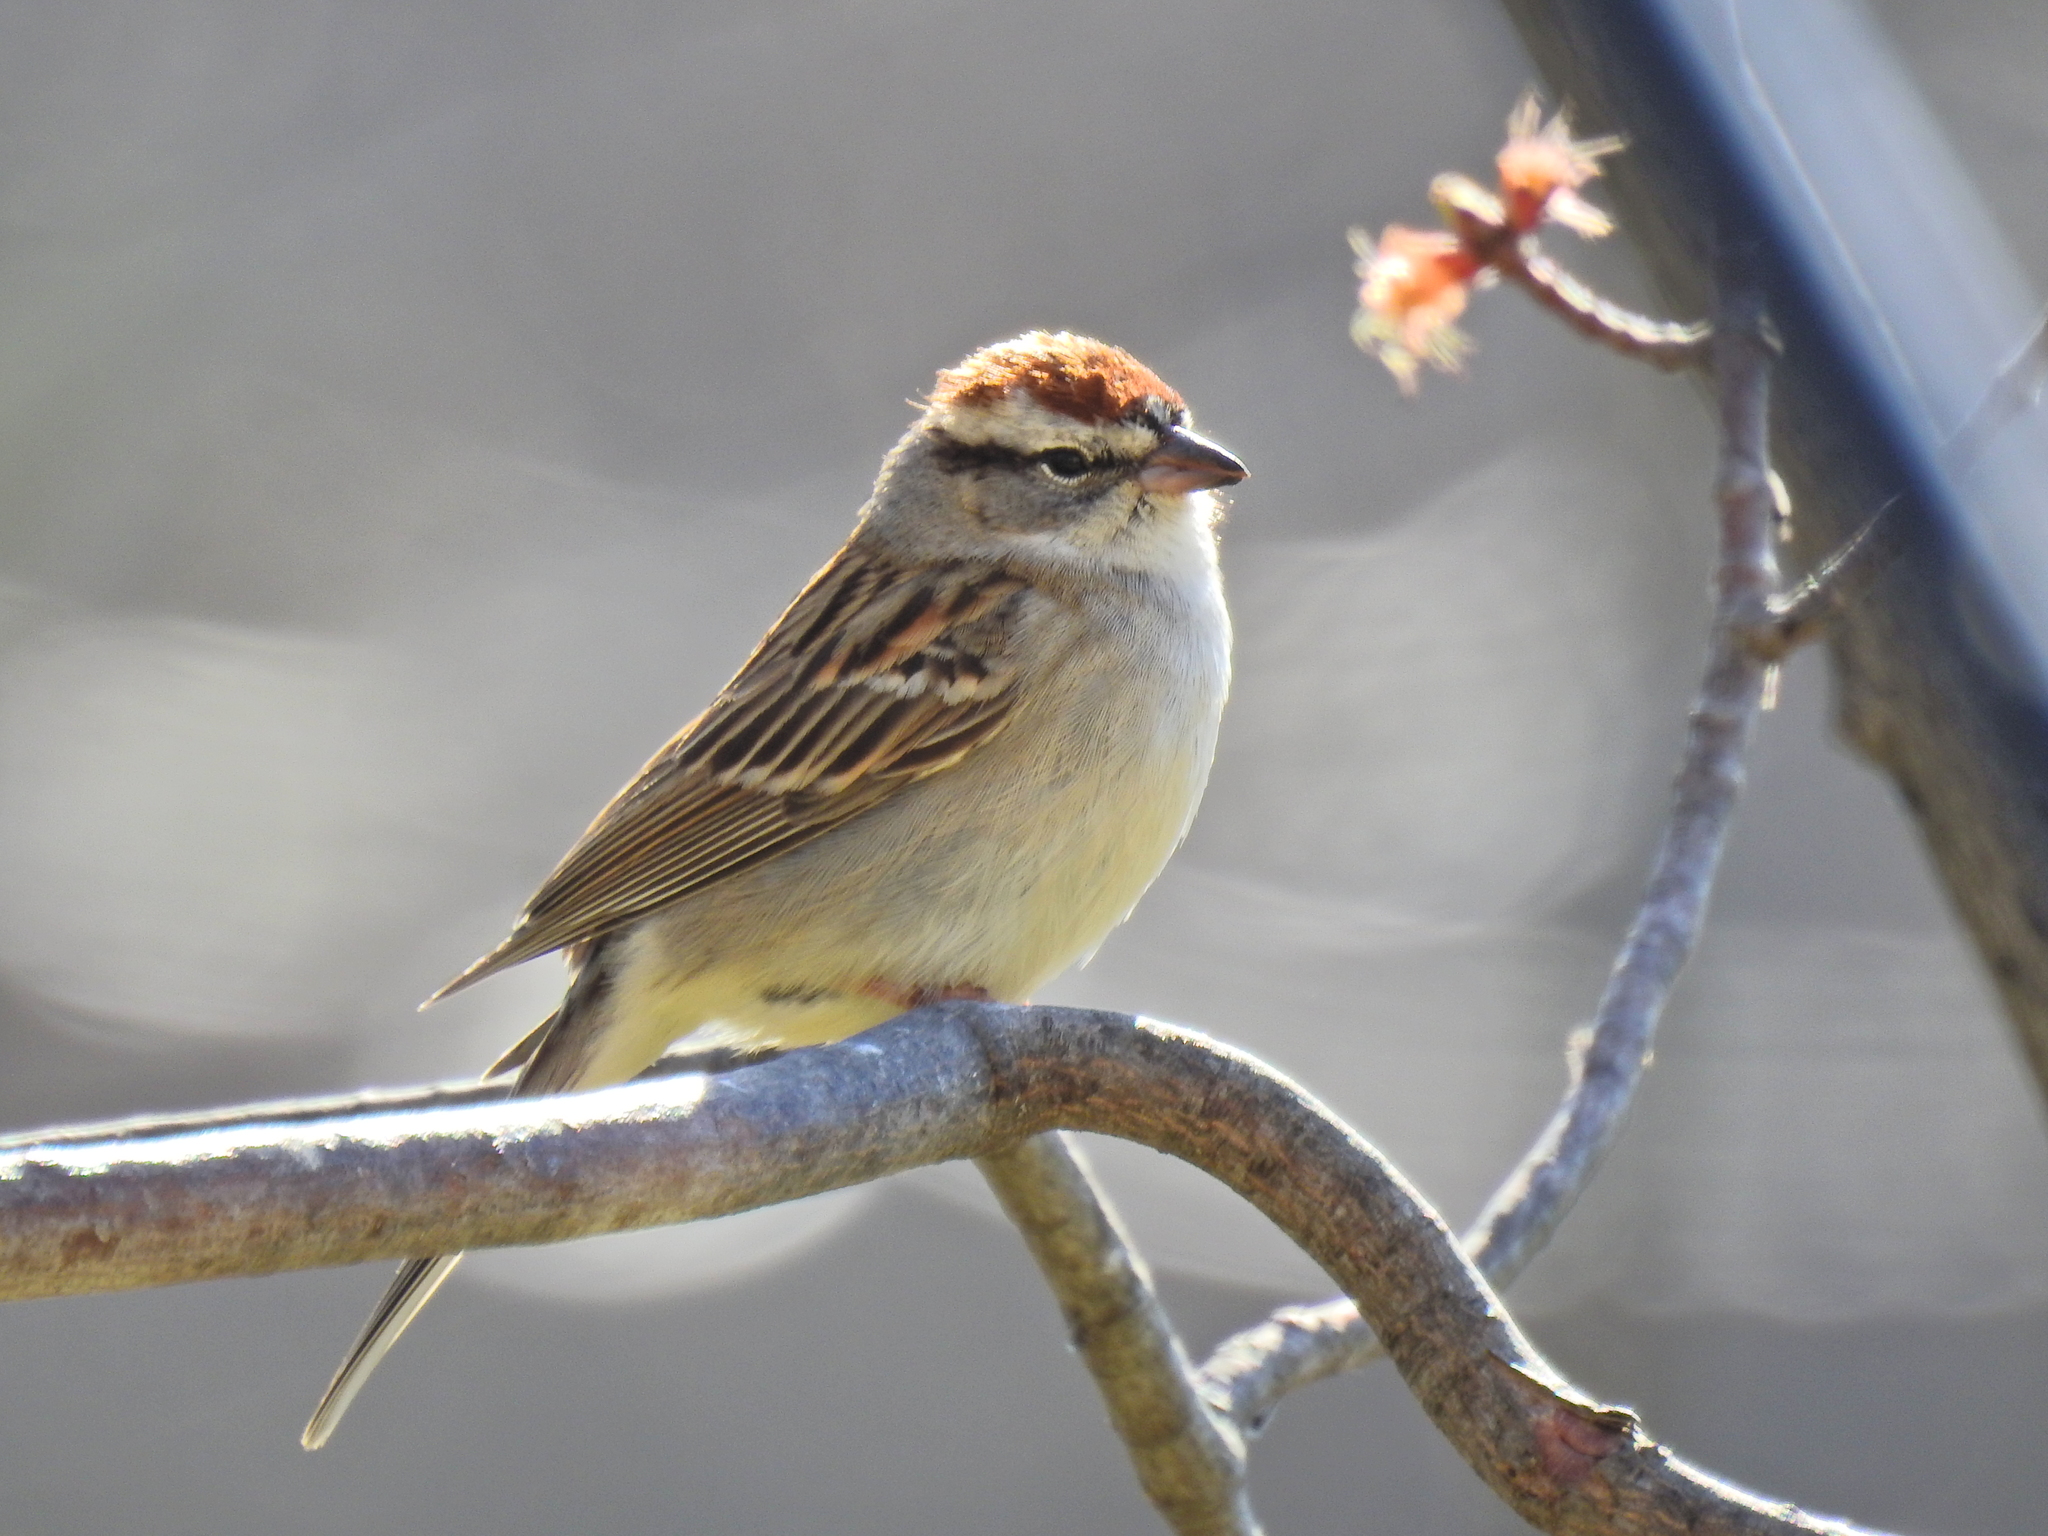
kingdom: Animalia
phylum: Chordata
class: Aves
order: Passeriformes
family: Passerellidae
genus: Spizella
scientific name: Spizella passerina
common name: Chipping sparrow
